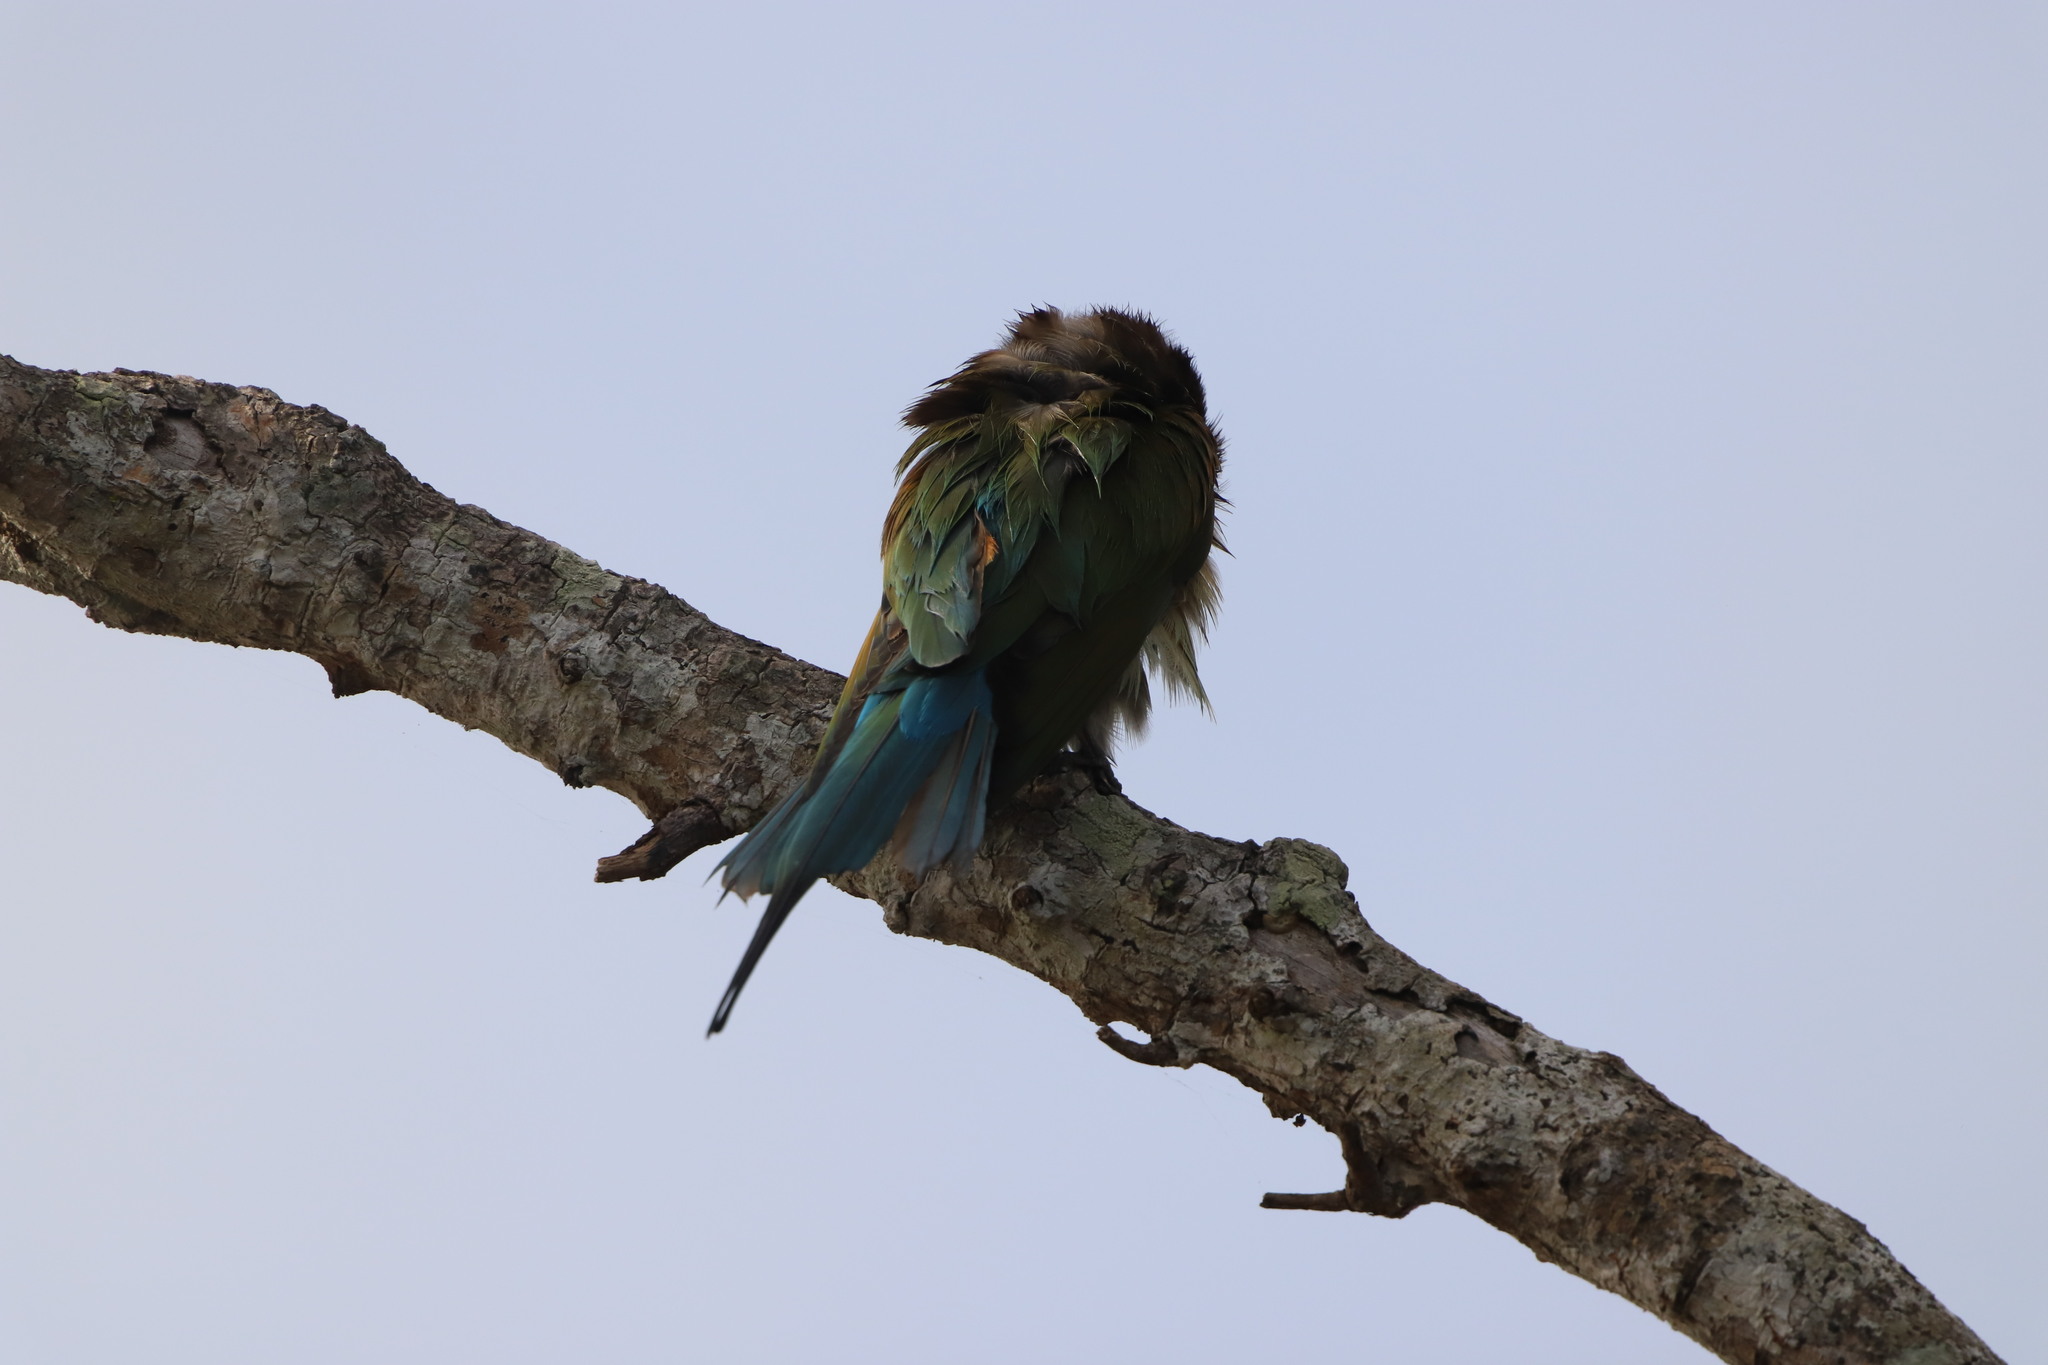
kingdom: Animalia
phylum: Chordata
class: Aves
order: Coraciiformes
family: Meropidae
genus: Merops
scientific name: Merops philippinus
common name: Blue-tailed bee-eater
